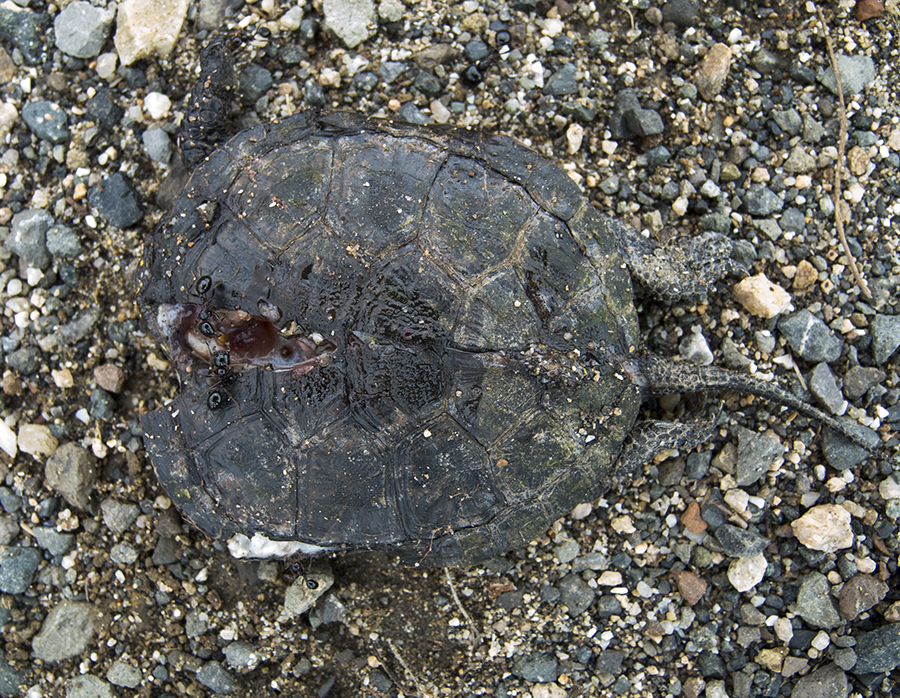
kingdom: Animalia
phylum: Chordata
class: Testudines
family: Emydidae
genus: Emys
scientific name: Emys orbicularis
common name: European pond turtle
